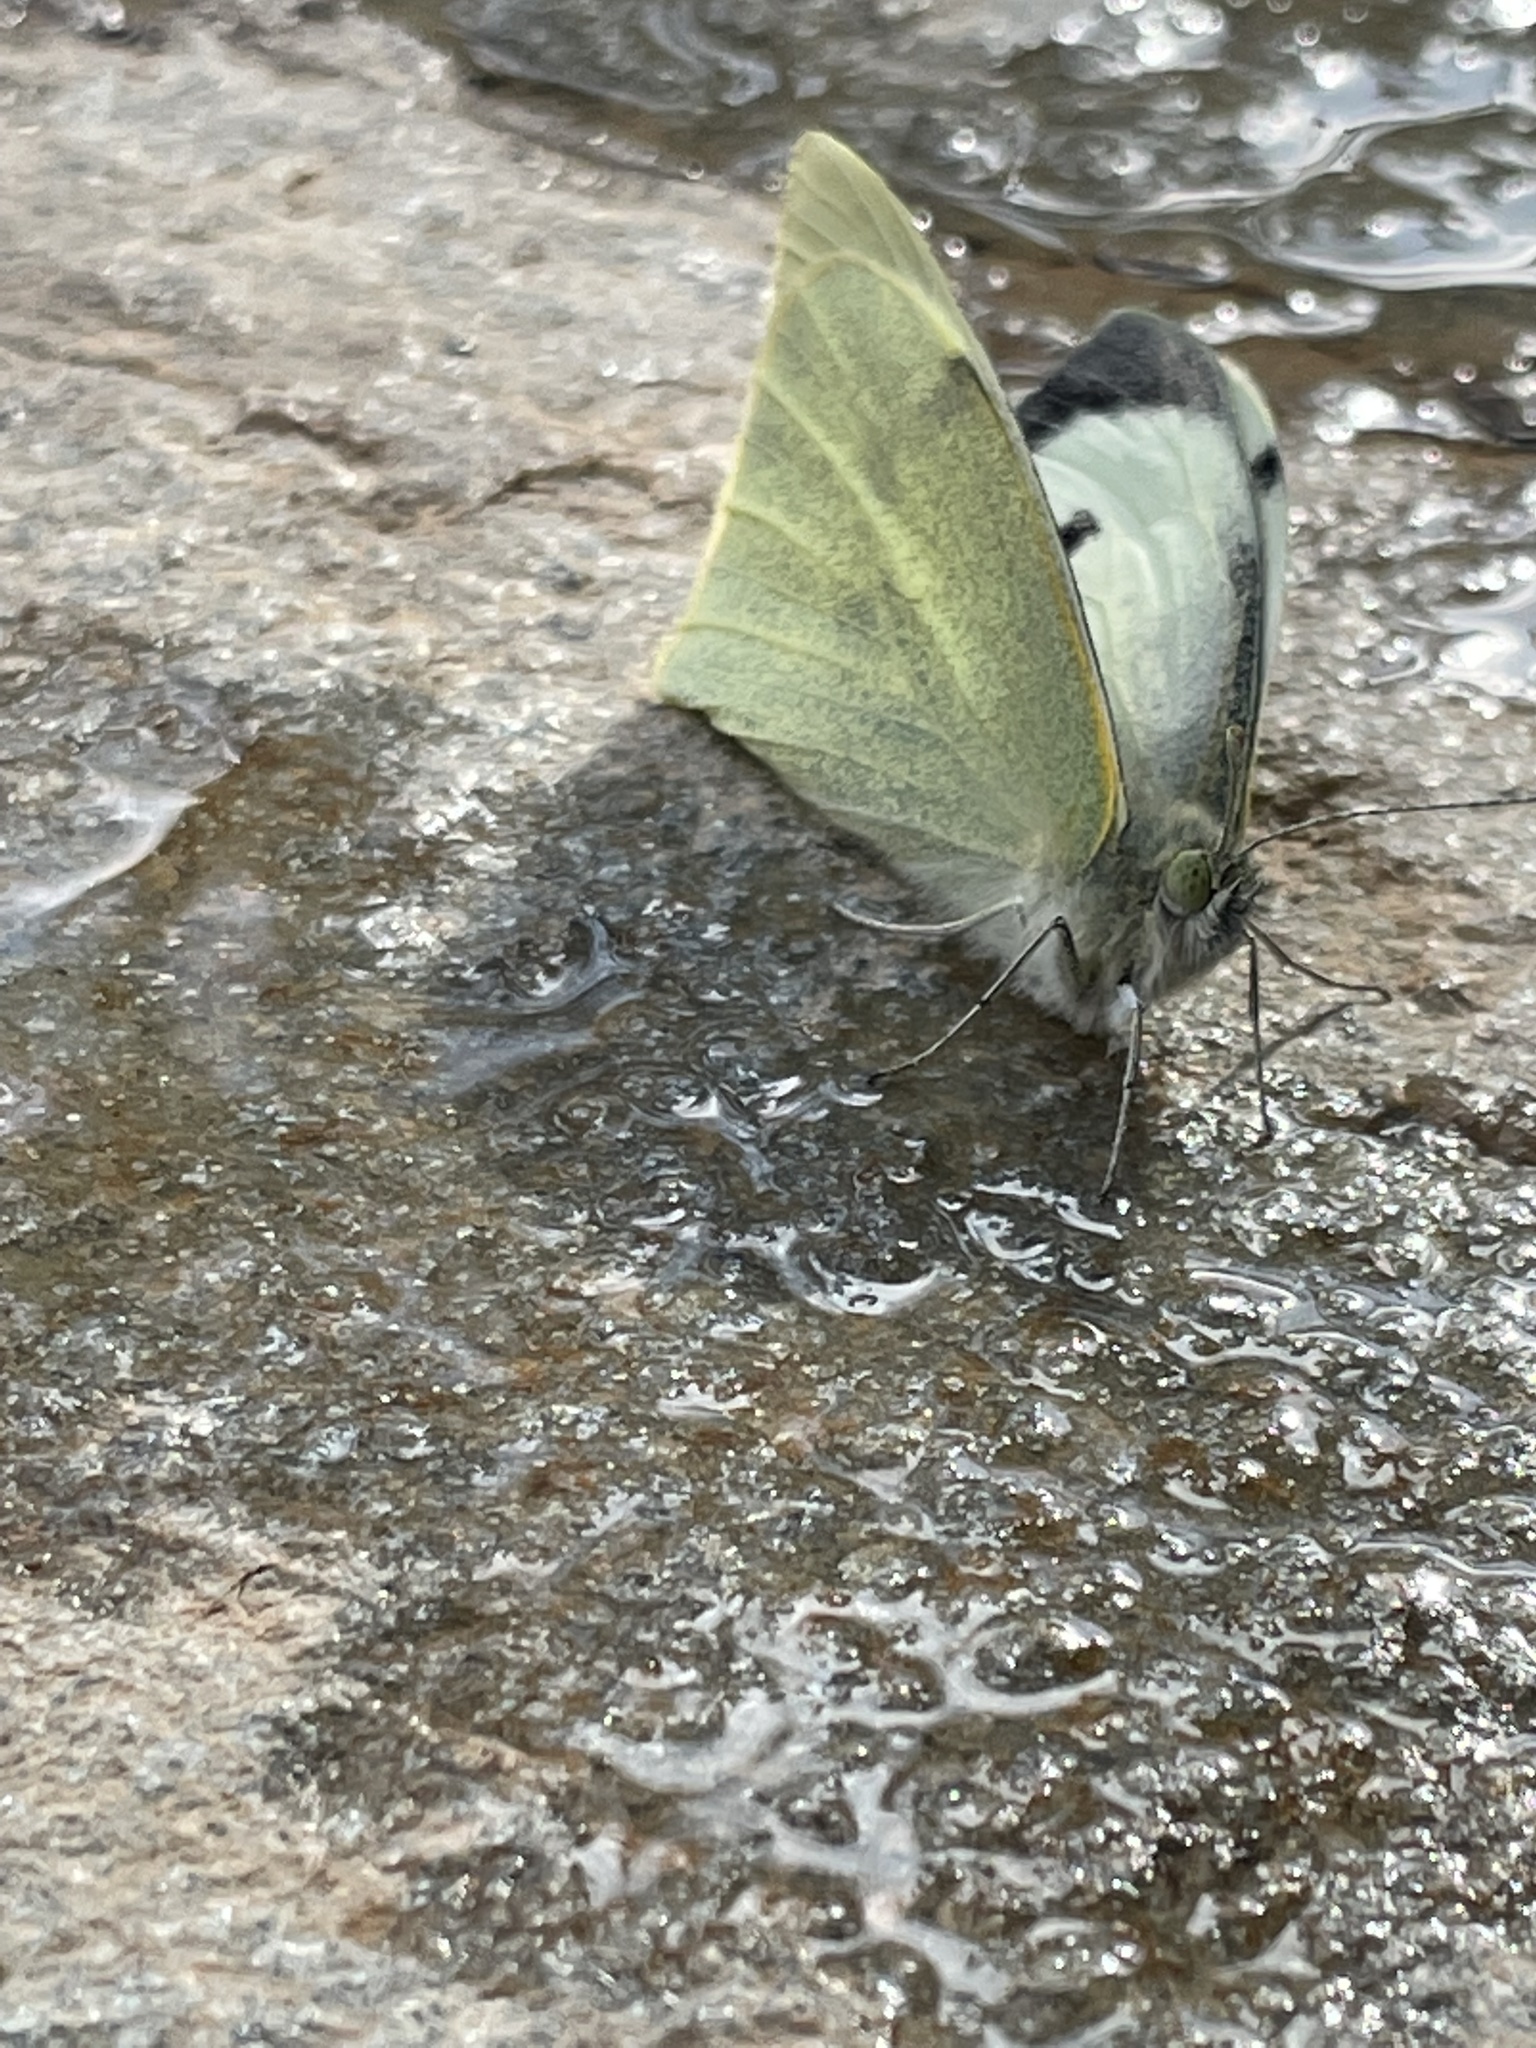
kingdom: Animalia
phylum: Arthropoda
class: Insecta
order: Lepidoptera
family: Pieridae
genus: Pieris
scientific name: Pieris brassicae
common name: Large white
